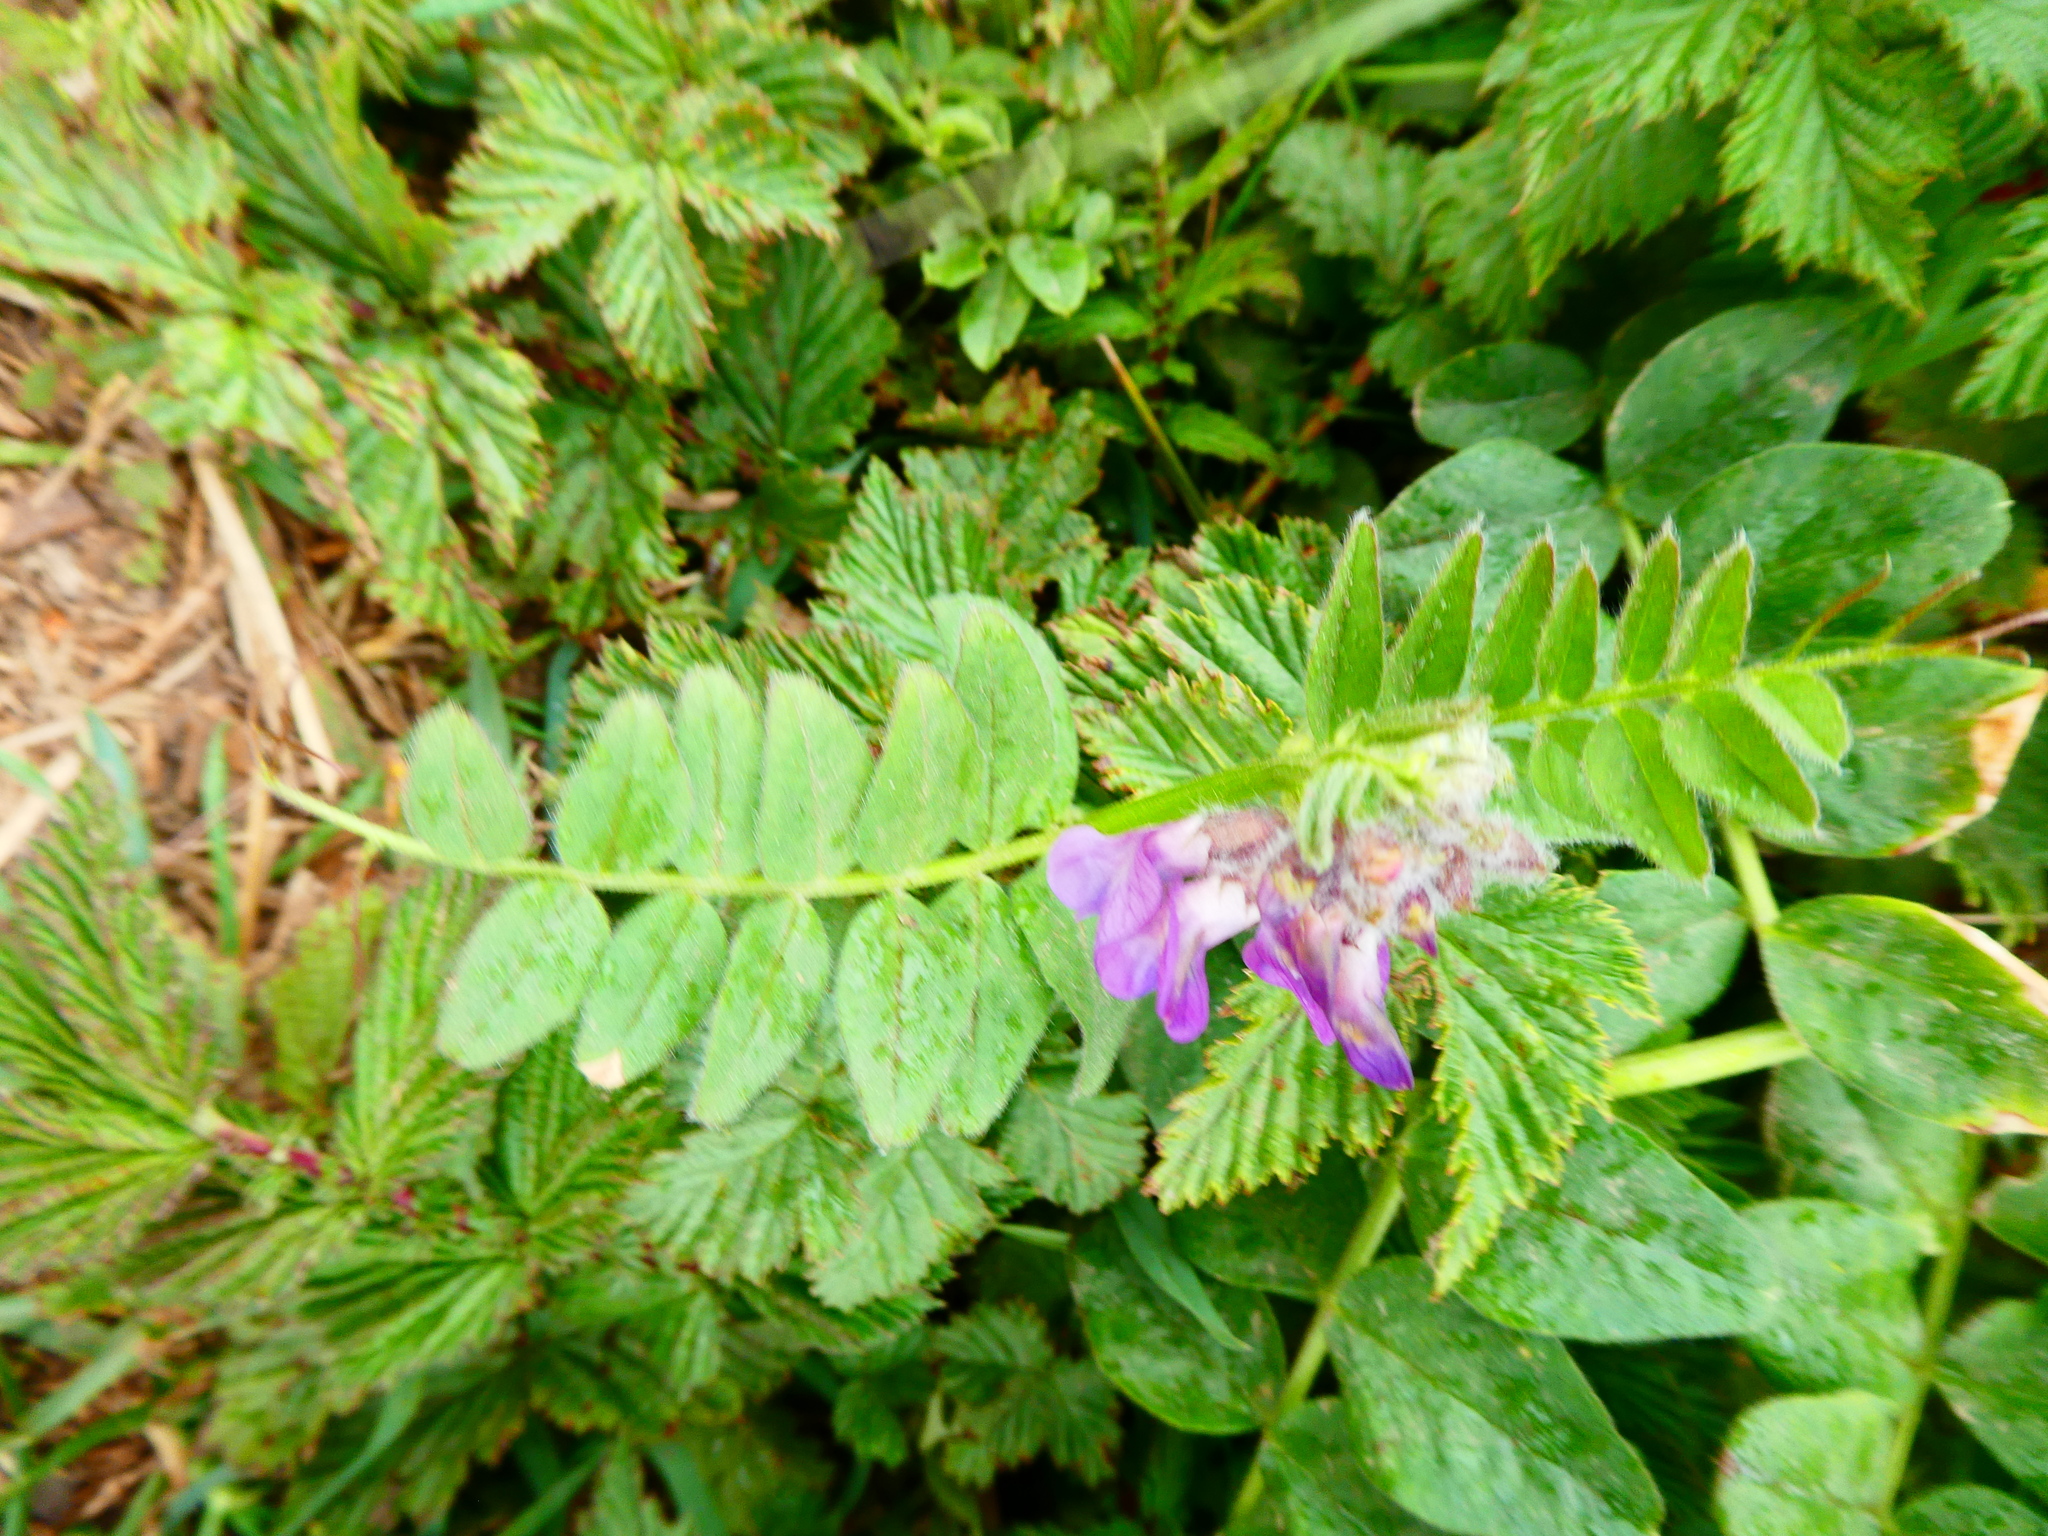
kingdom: Plantae
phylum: Tracheophyta
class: Magnoliopsida
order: Fabales
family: Fabaceae
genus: Vicia
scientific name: Vicia sepium
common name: Bush vetch
